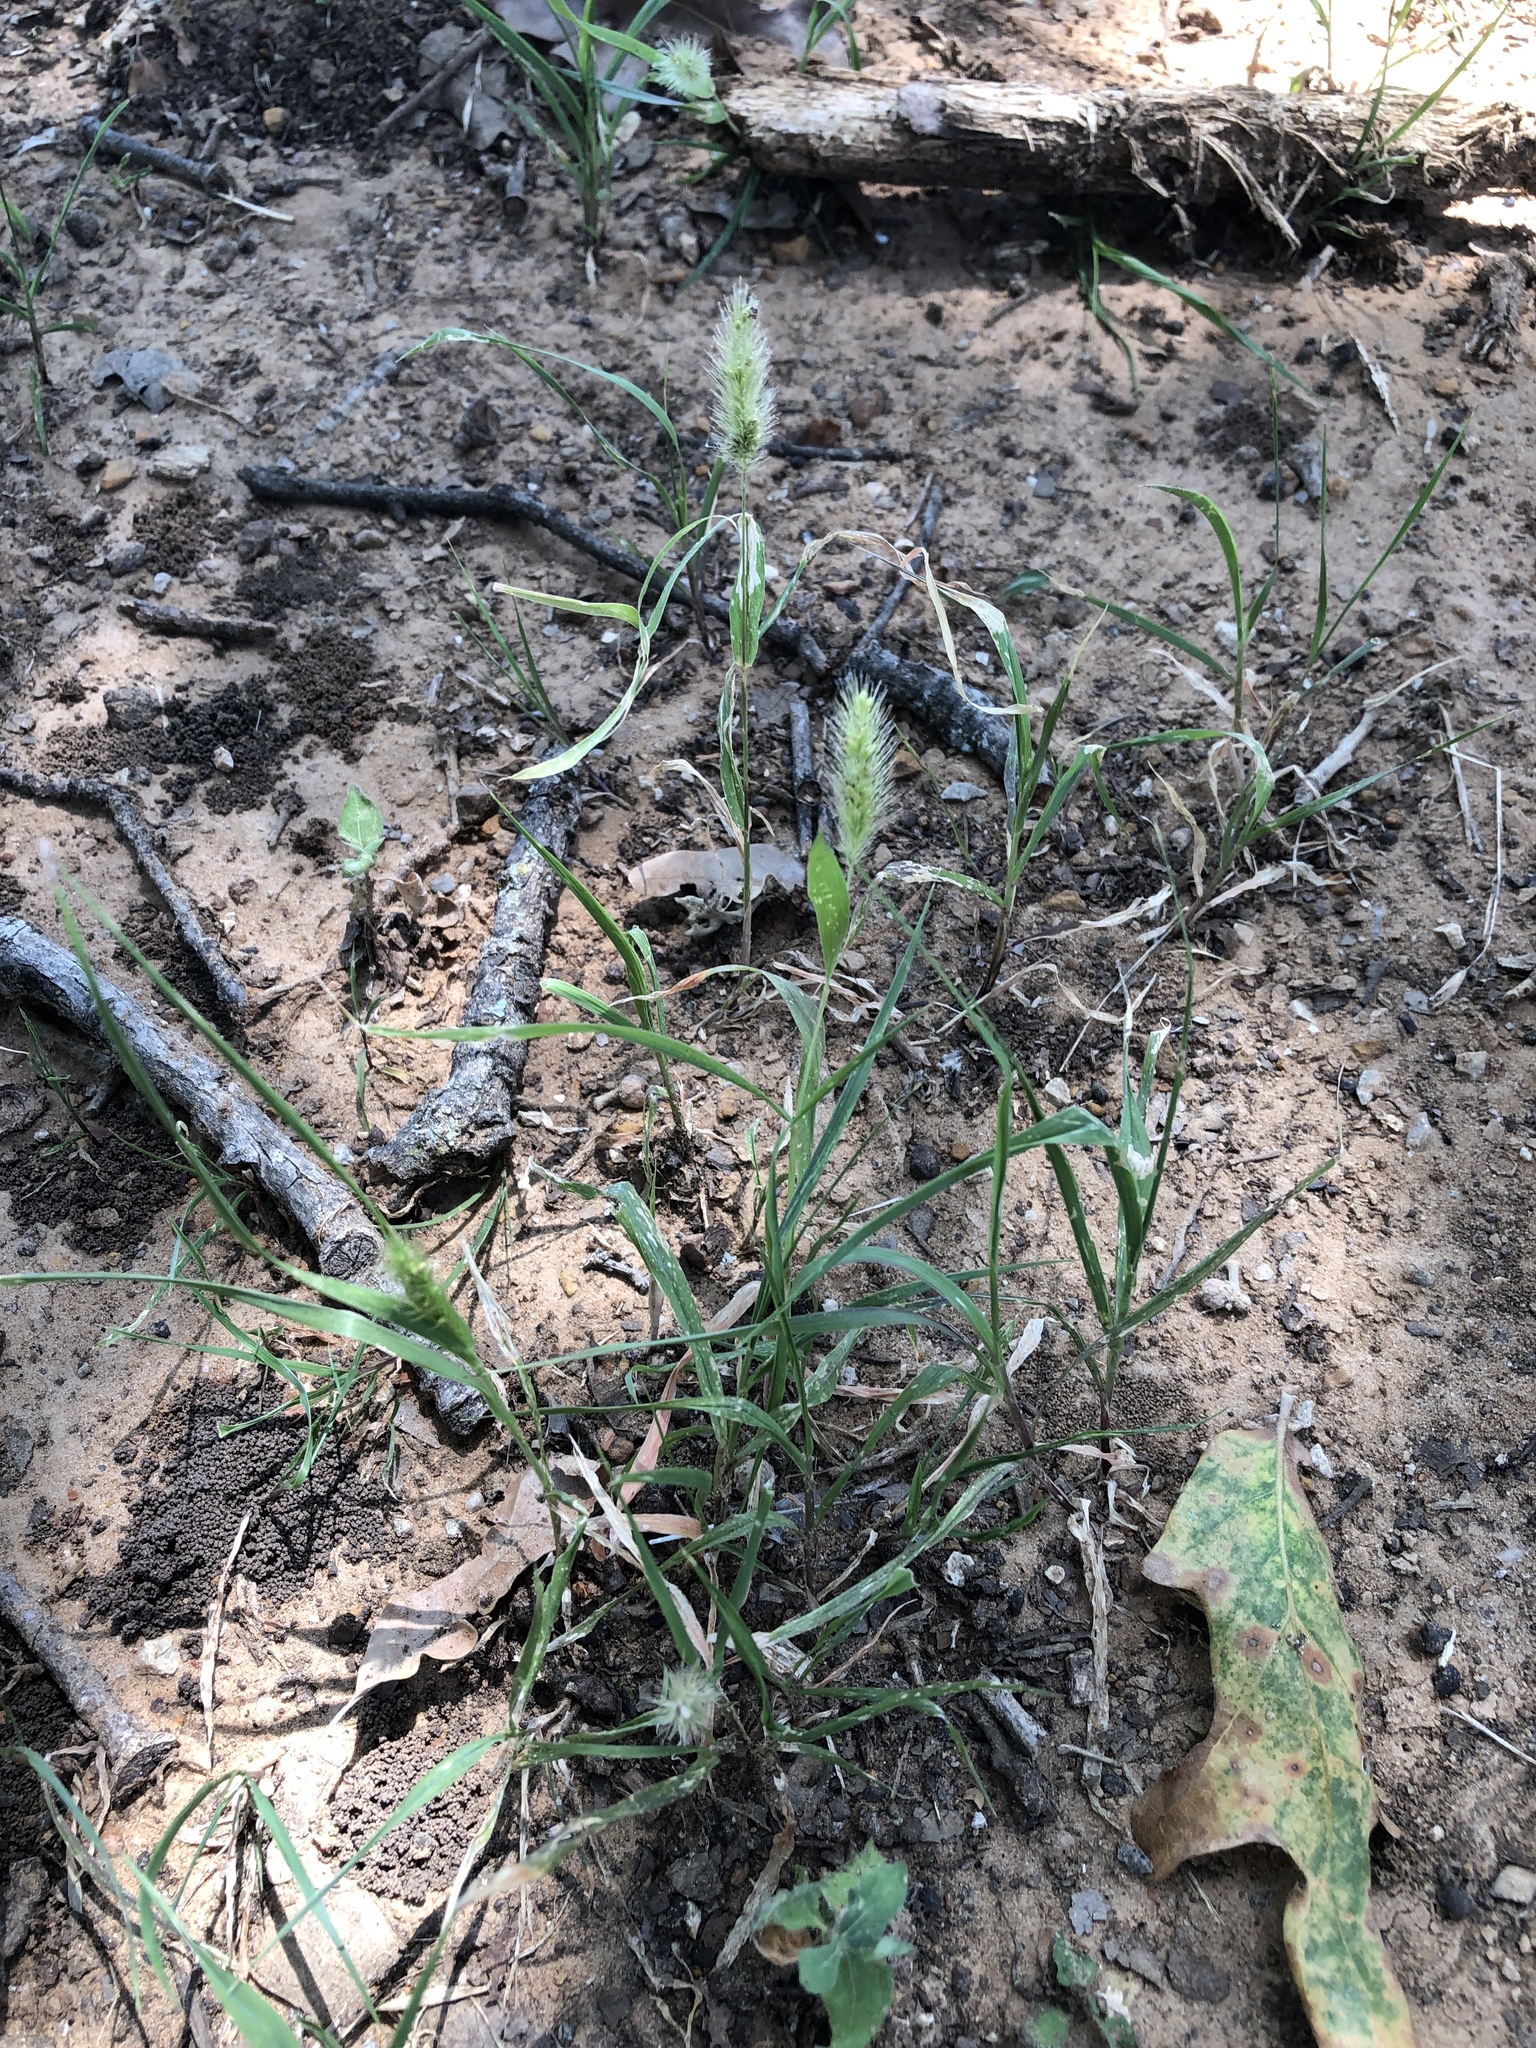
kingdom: Plantae
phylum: Tracheophyta
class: Liliopsida
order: Poales
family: Poaceae
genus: Setaria
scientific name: Setaria viridis
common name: Green bristlegrass
